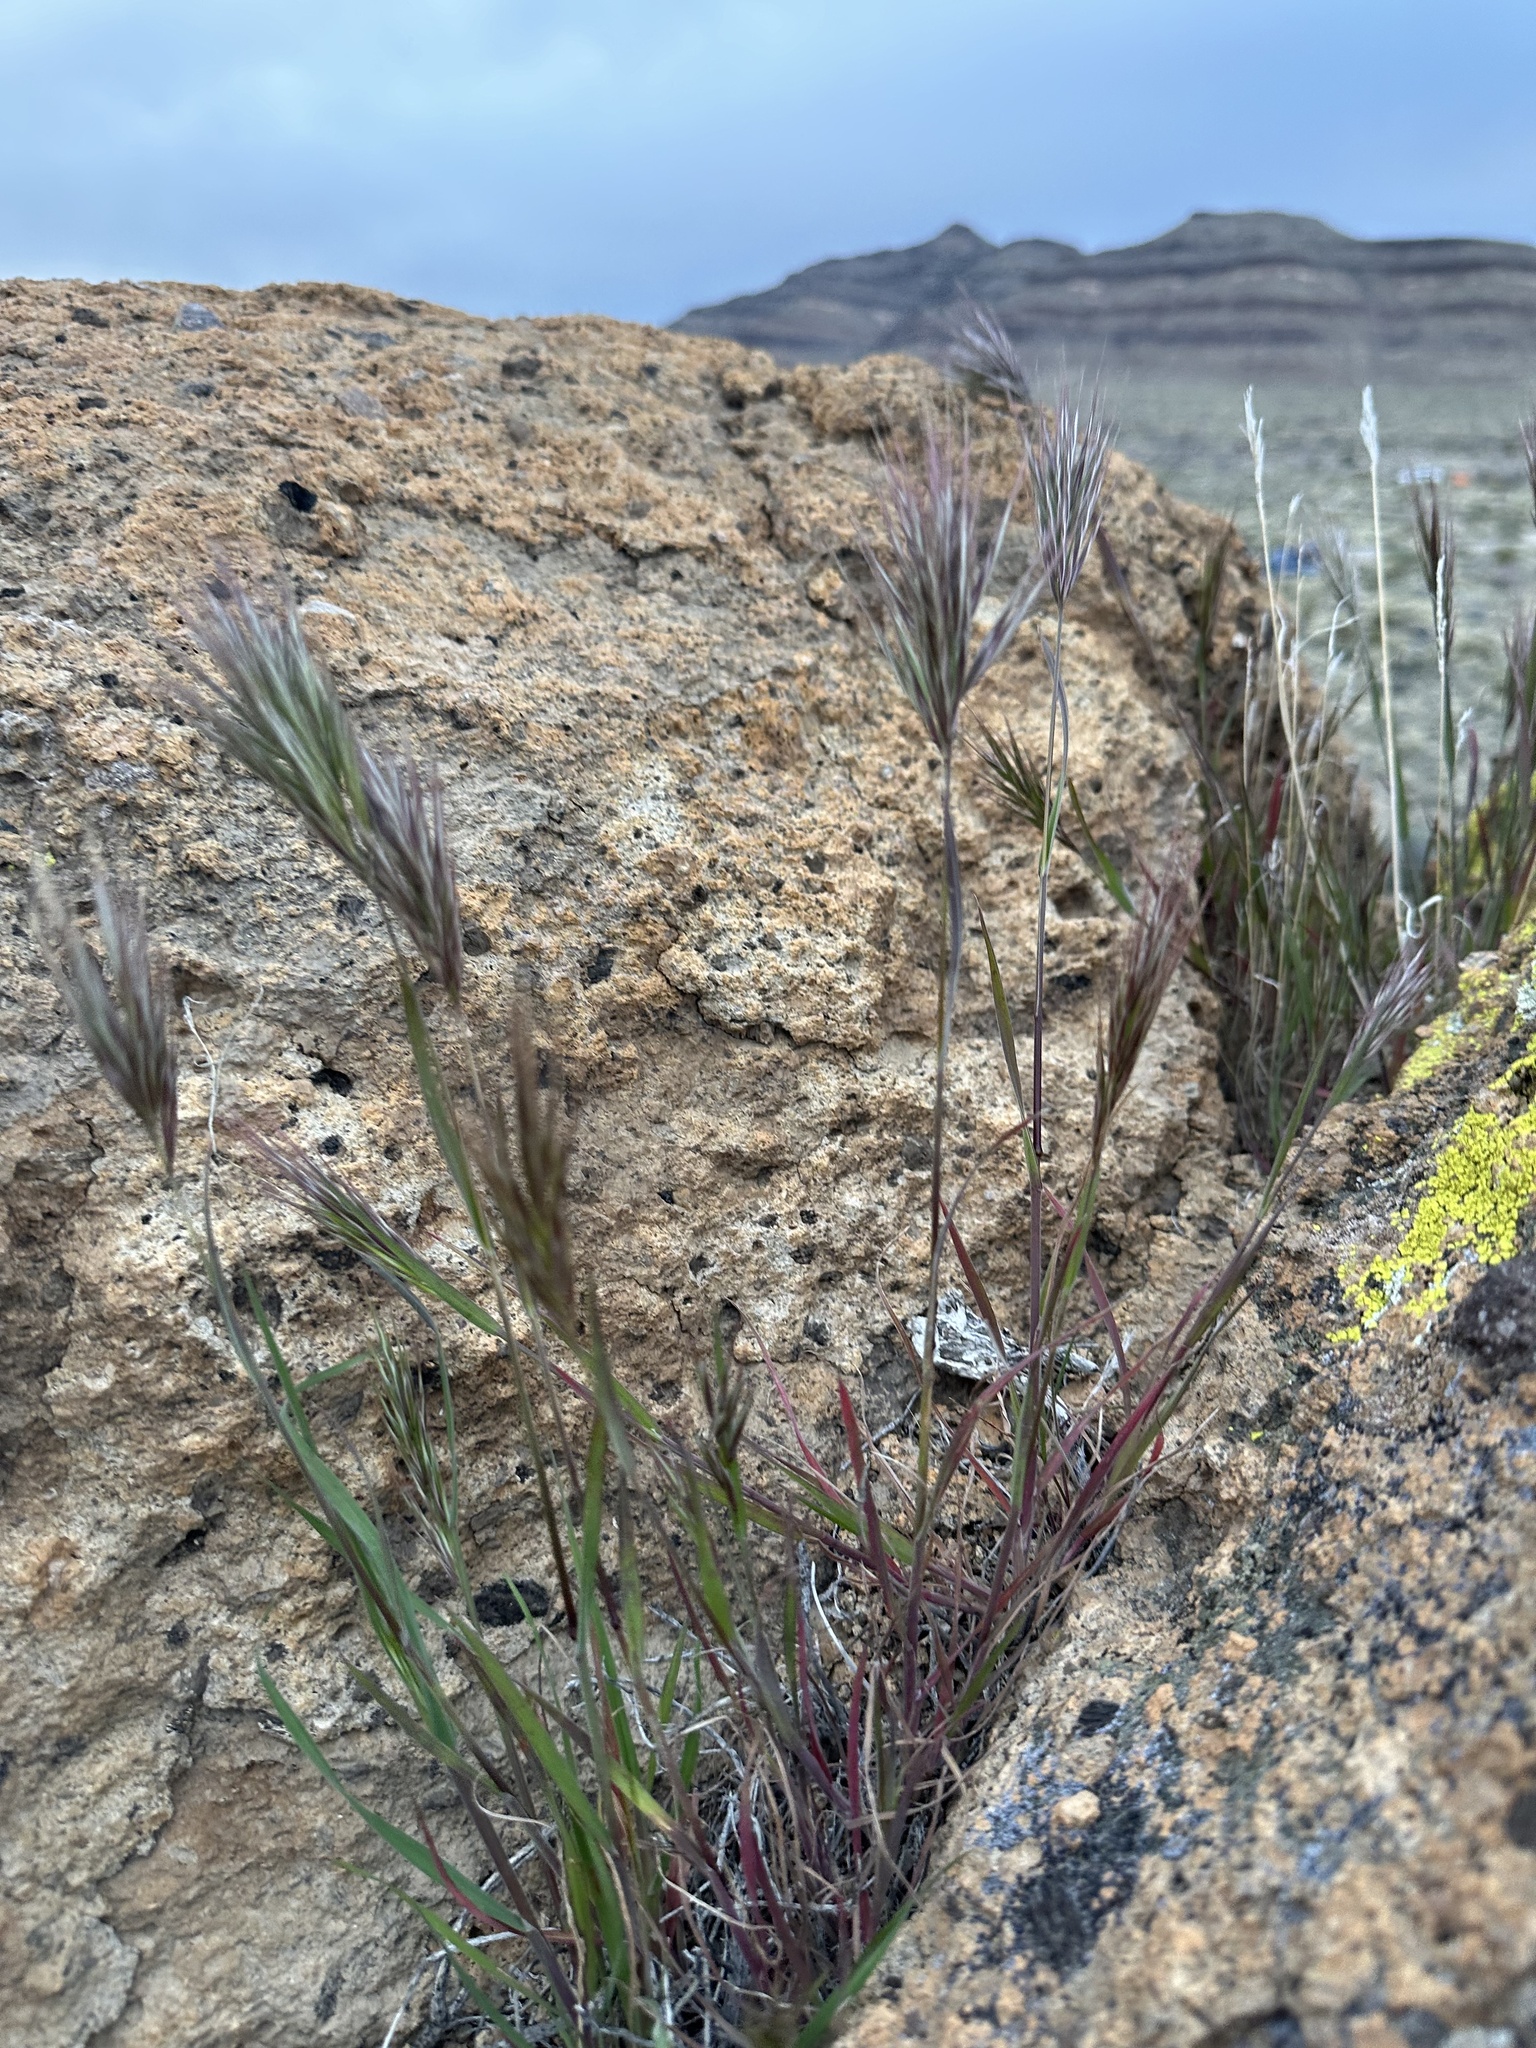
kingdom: Plantae
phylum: Tracheophyta
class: Liliopsida
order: Poales
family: Poaceae
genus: Bromus
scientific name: Bromus rubens
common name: Red brome
